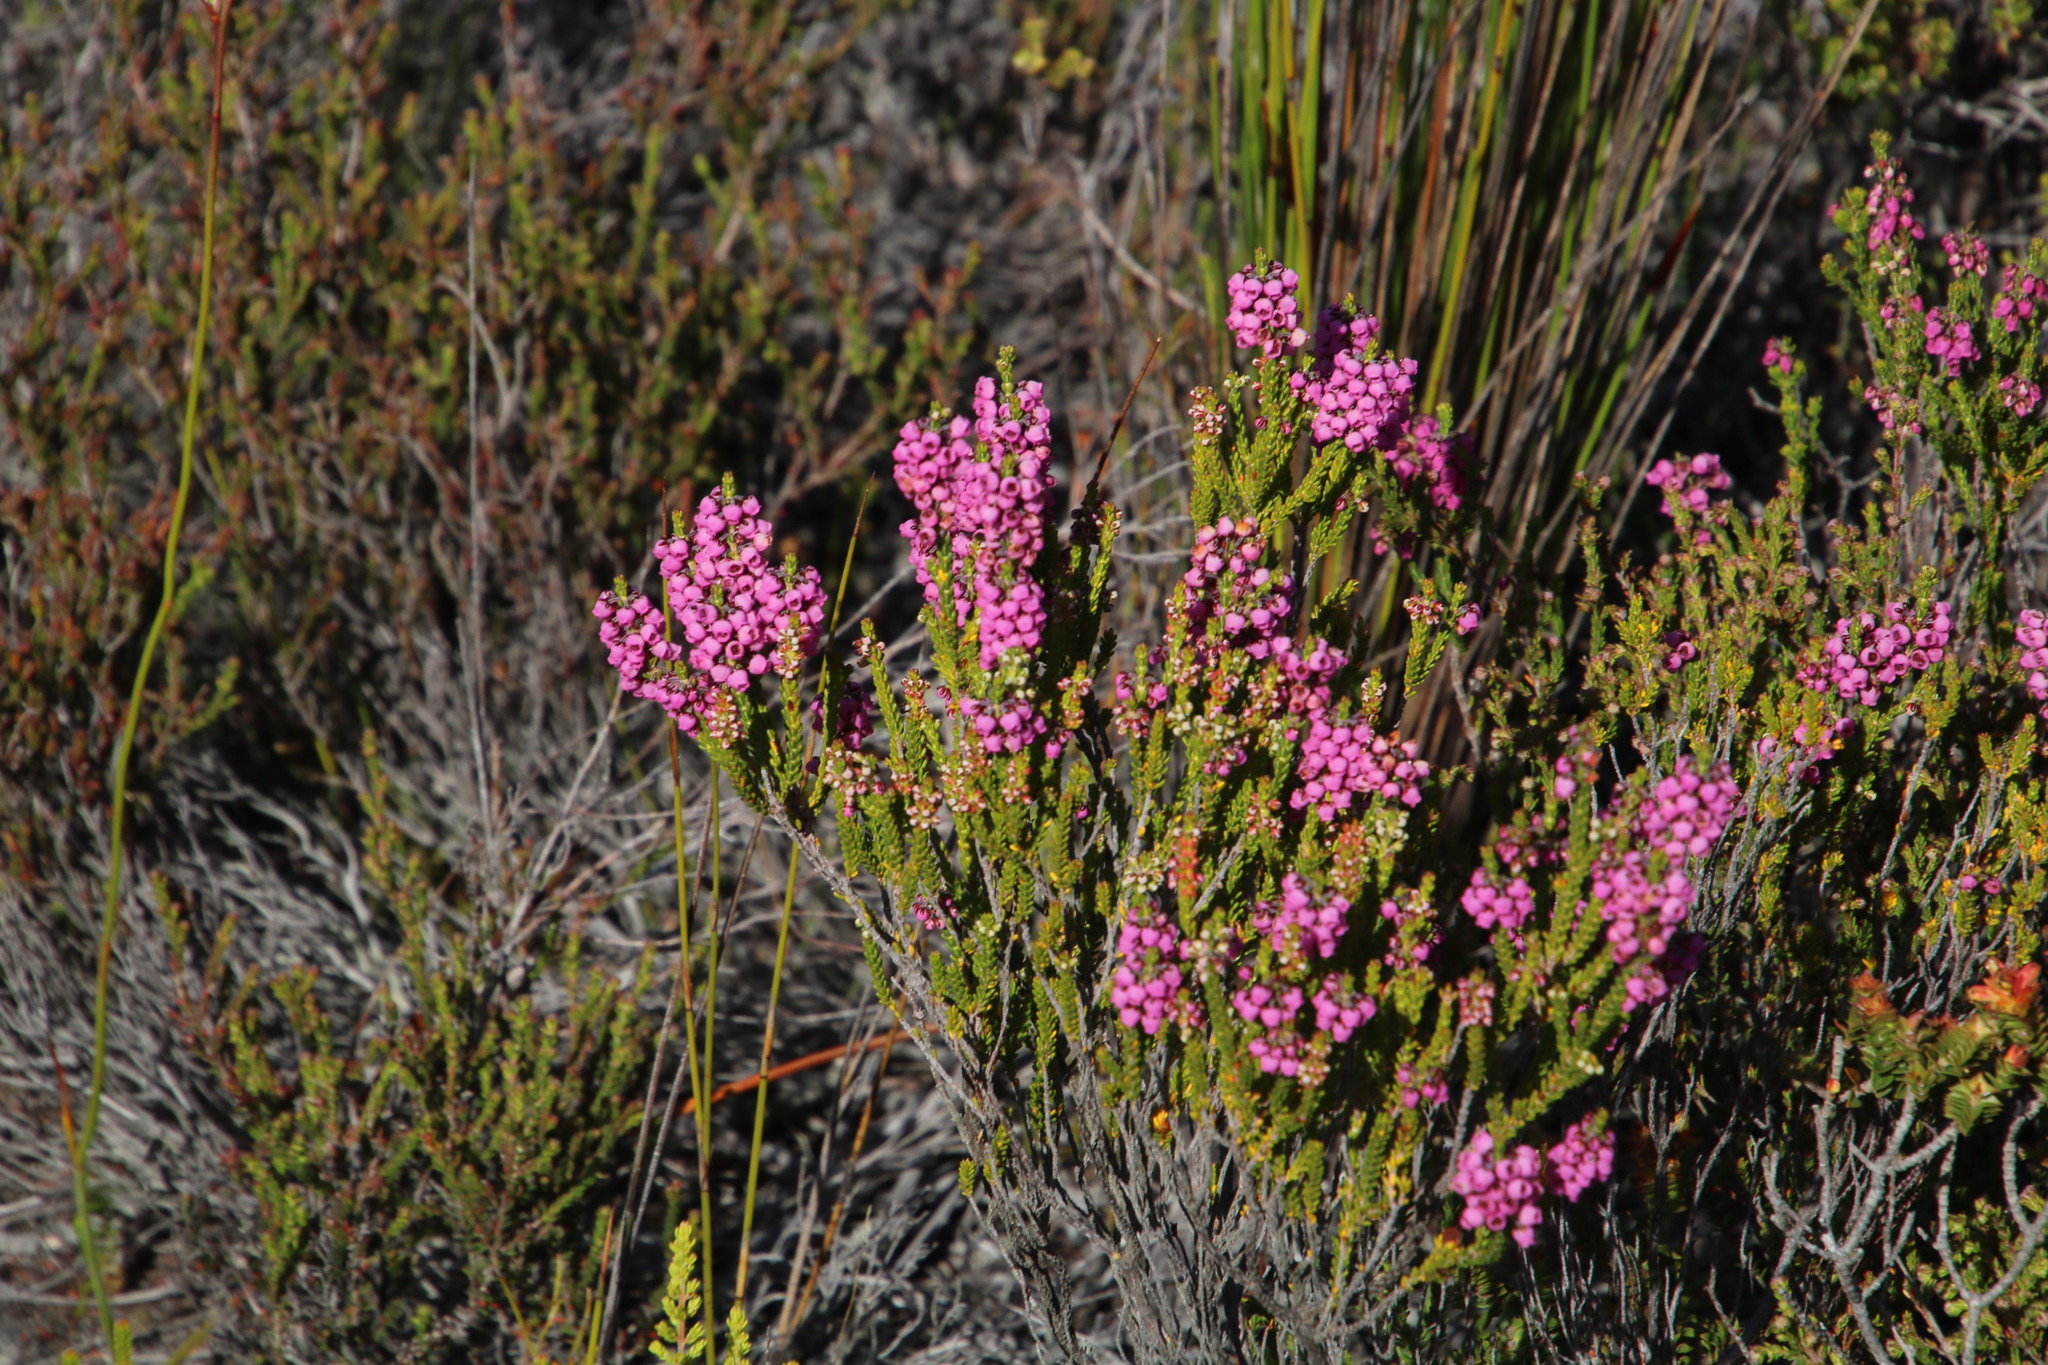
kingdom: Plantae
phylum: Tracheophyta
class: Magnoliopsida
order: Ericales
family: Ericaceae
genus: Erica
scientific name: Erica pulchella
